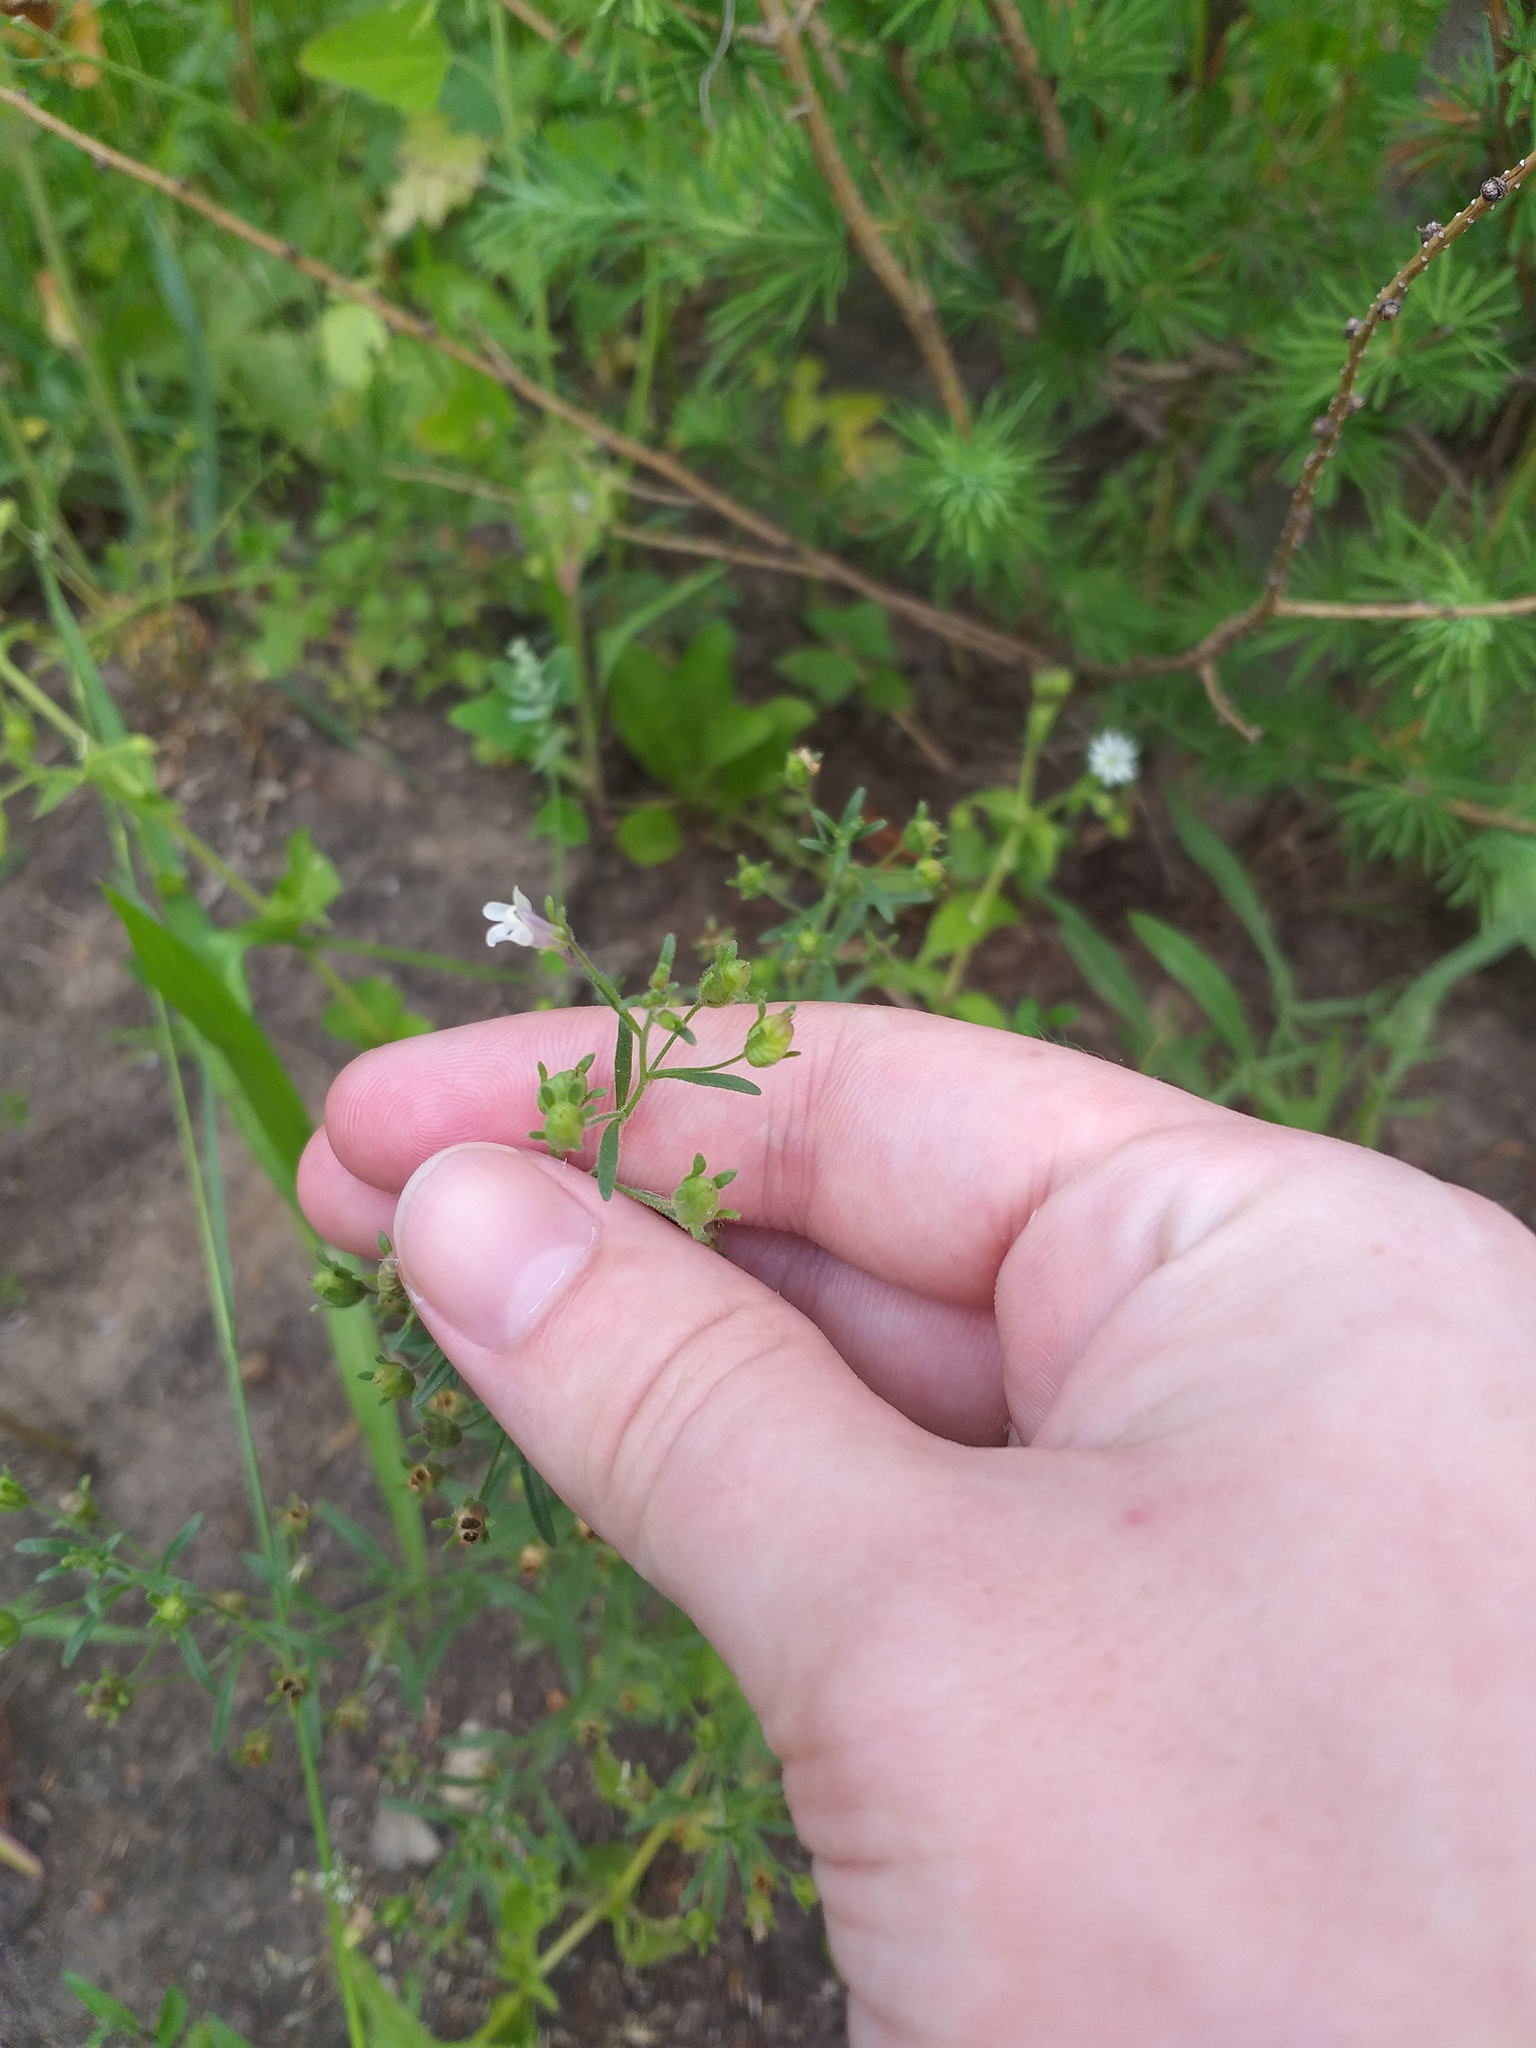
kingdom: Plantae
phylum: Tracheophyta
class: Magnoliopsida
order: Lamiales
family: Plantaginaceae
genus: Chaenorhinum
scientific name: Chaenorhinum minus
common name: Dwarf snapdragon
